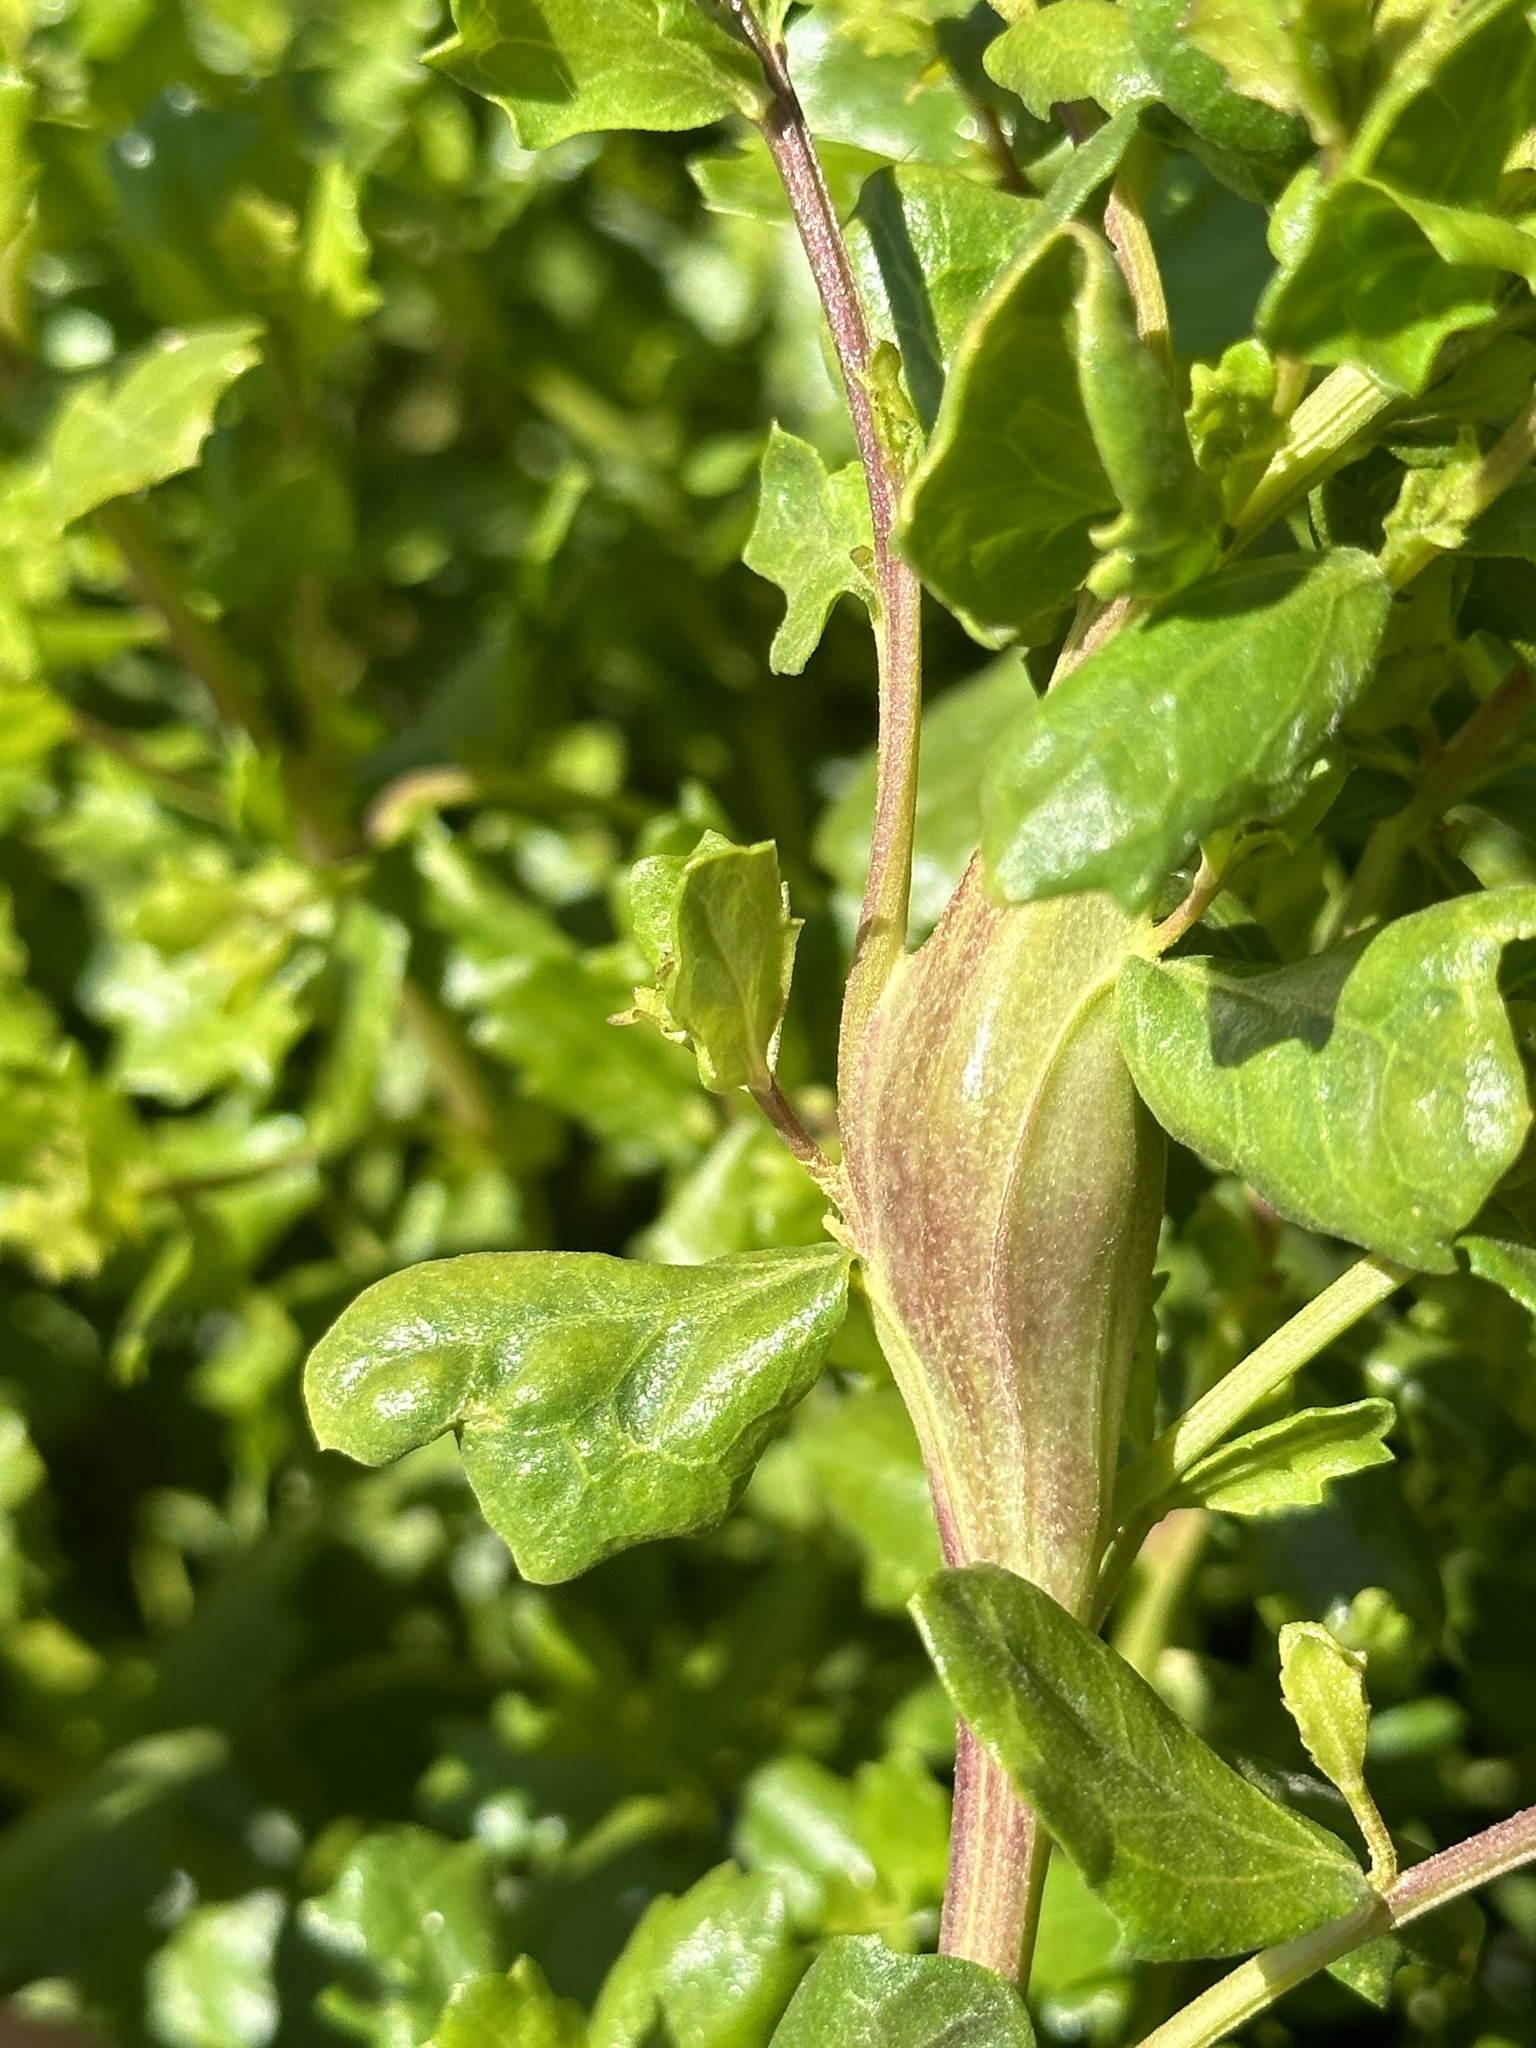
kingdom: Animalia
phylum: Arthropoda
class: Insecta
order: Lepidoptera
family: Gelechiidae
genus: Gnorimoschema
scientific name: Gnorimoschema baccharisella
